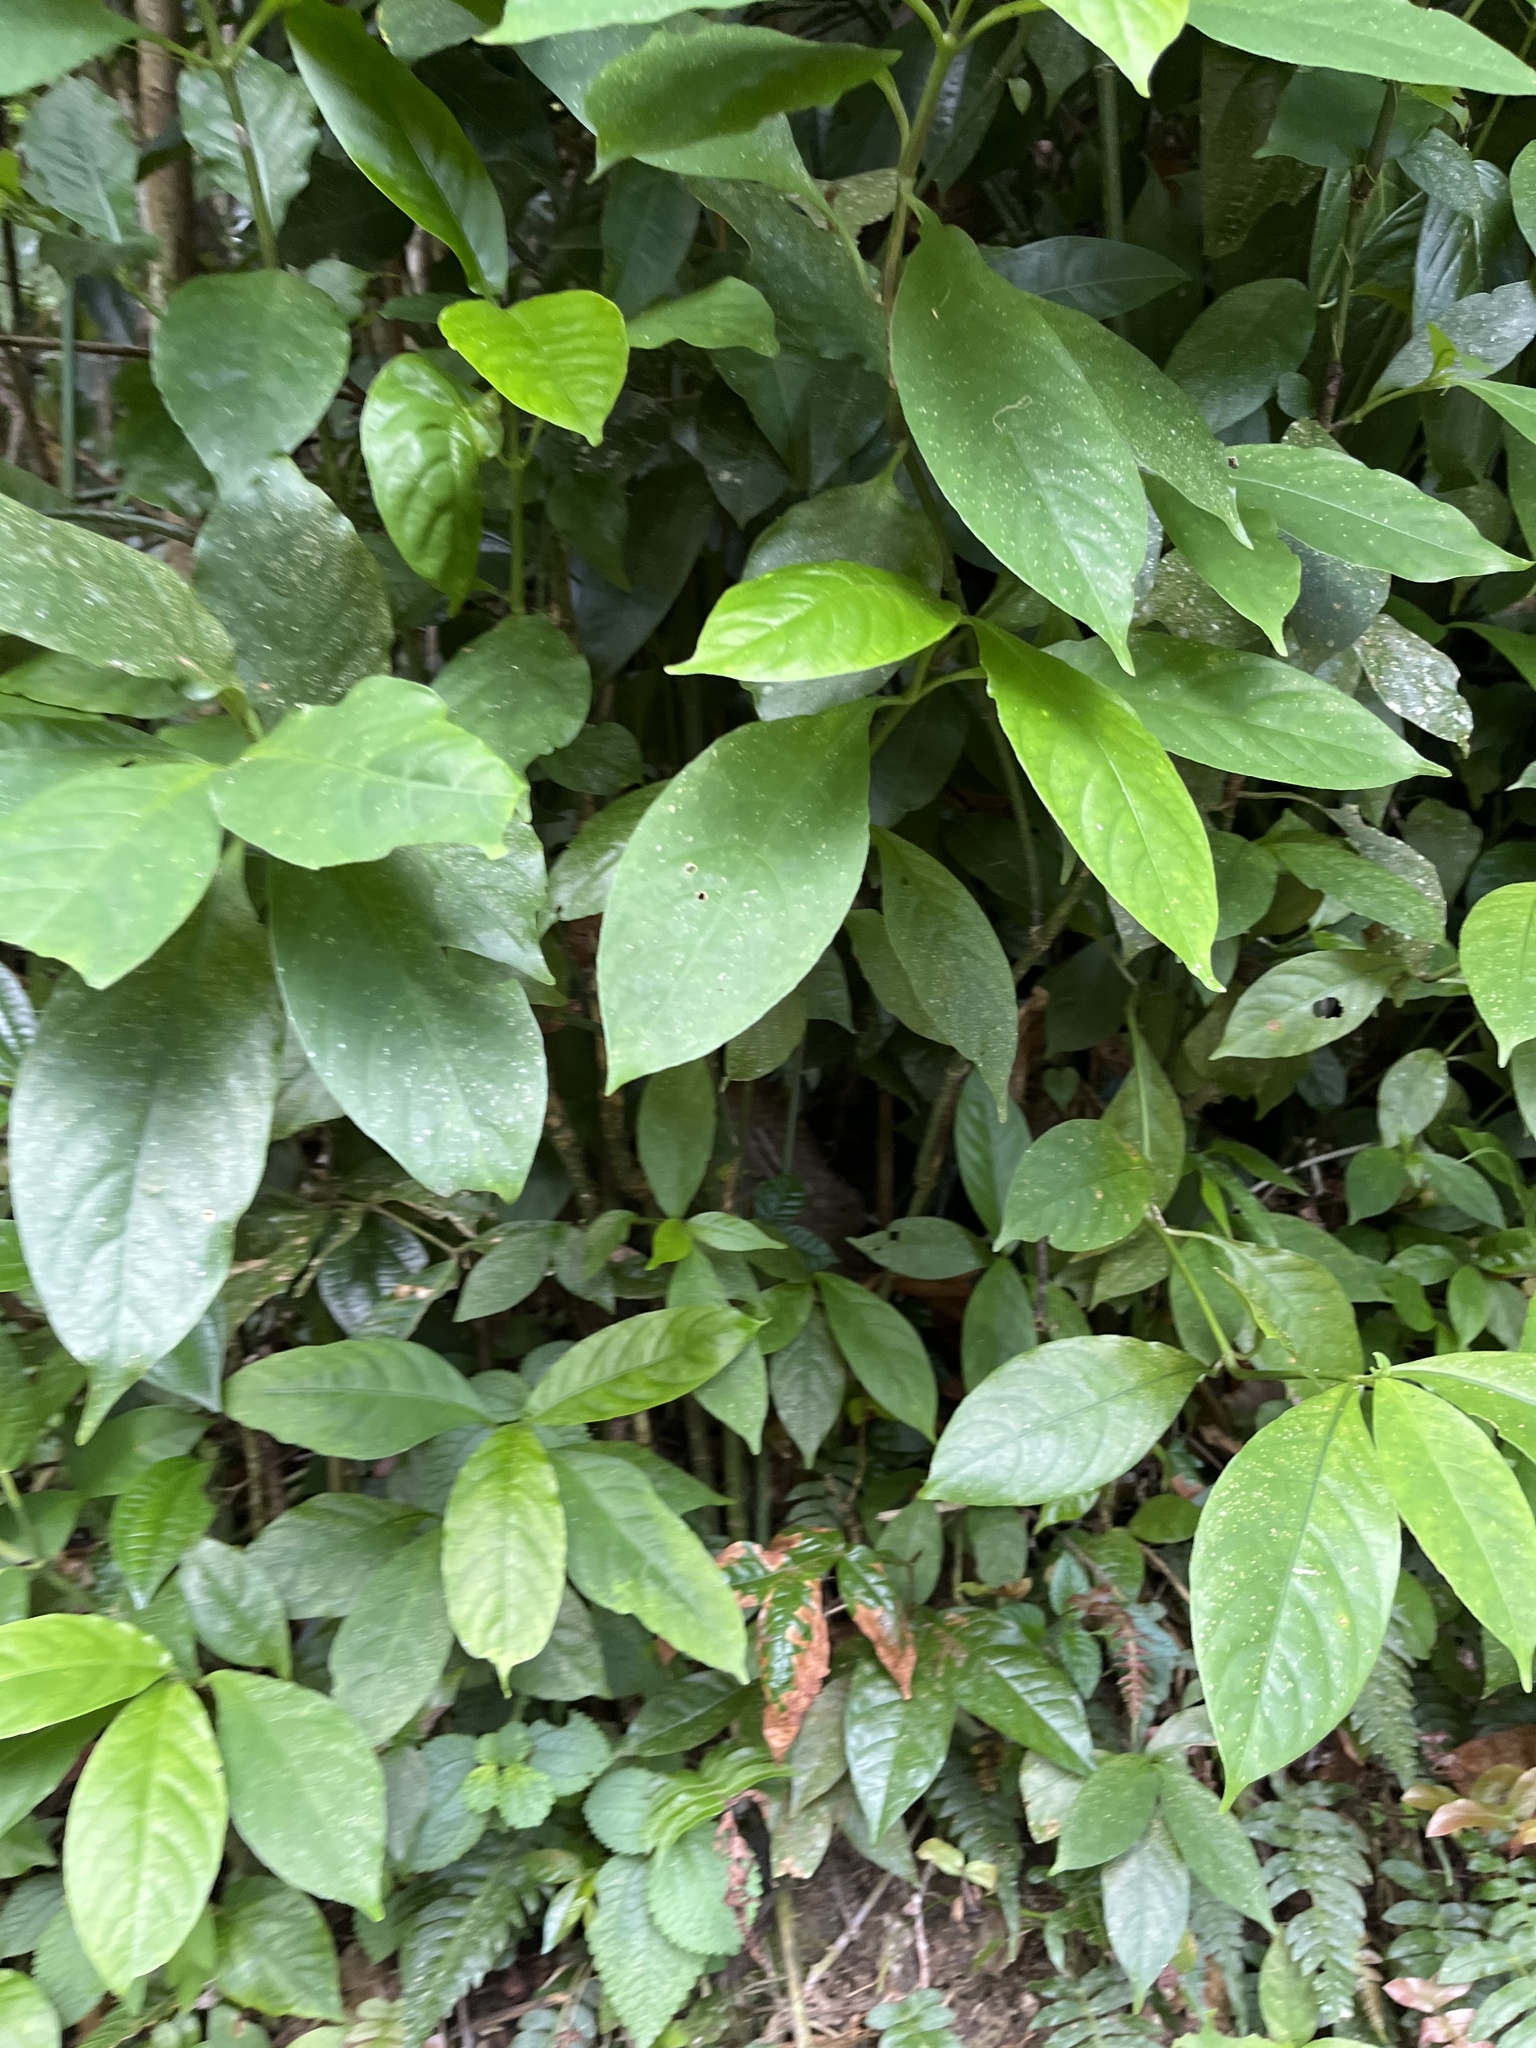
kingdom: Plantae
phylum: Tracheophyta
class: Magnoliopsida
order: Lamiales
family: Acanthaceae
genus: Odontonema
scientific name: Odontonema cuspidatum
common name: Mottled toothedthread
